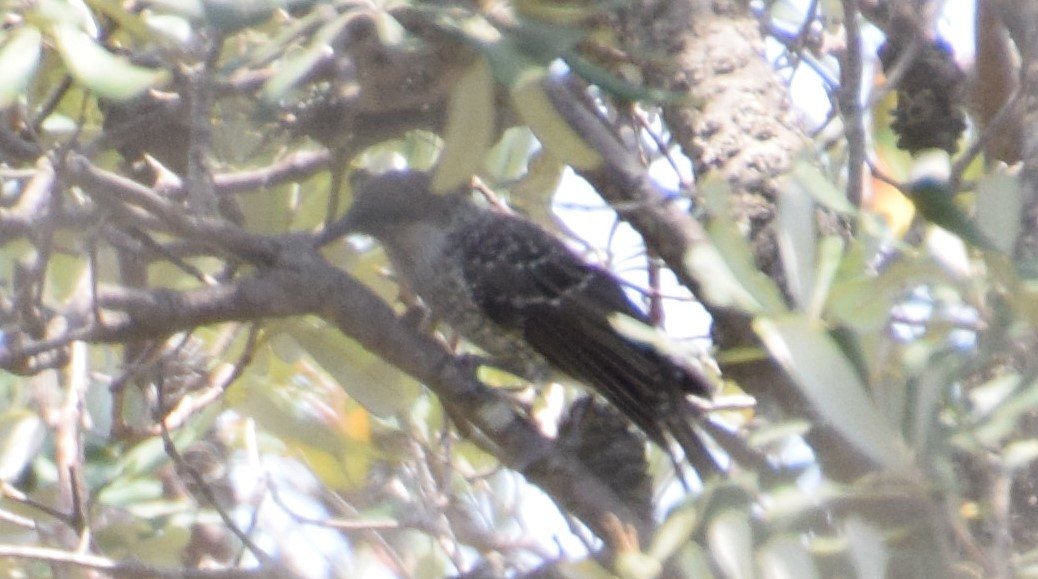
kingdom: Animalia
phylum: Chordata
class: Aves
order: Passeriformes
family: Meliphagidae
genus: Anthochaera
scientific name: Anthochaera chrysoptera
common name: Little wattlebird
